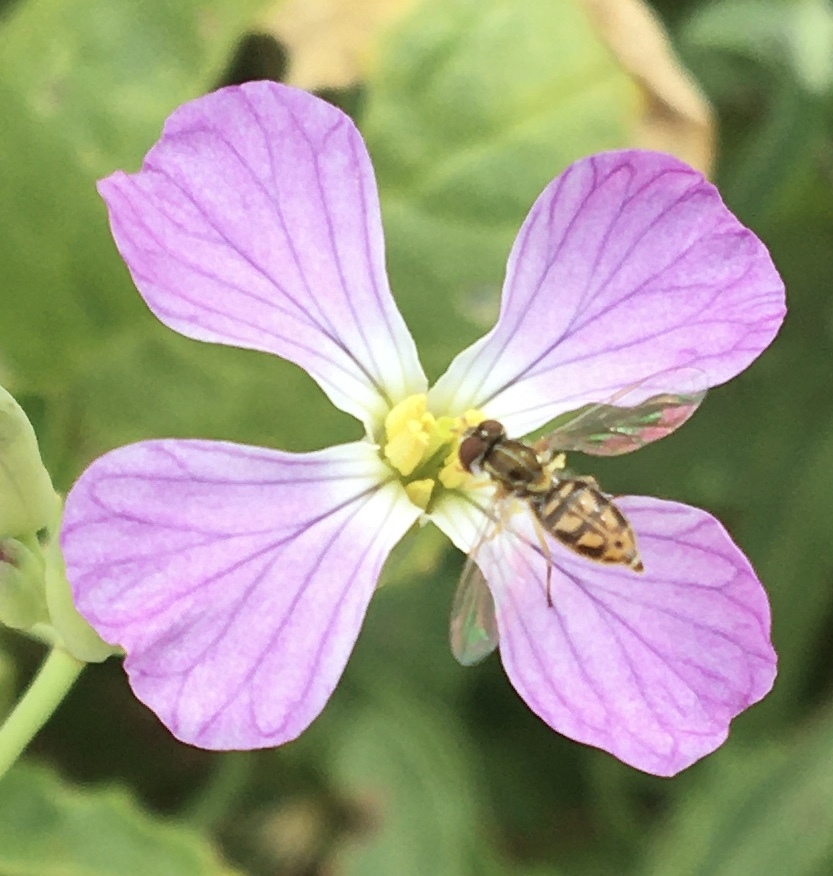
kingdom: Animalia
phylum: Arthropoda
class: Insecta
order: Diptera
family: Syrphidae
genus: Toxomerus
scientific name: Toxomerus marginatus
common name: Syrphid fly
